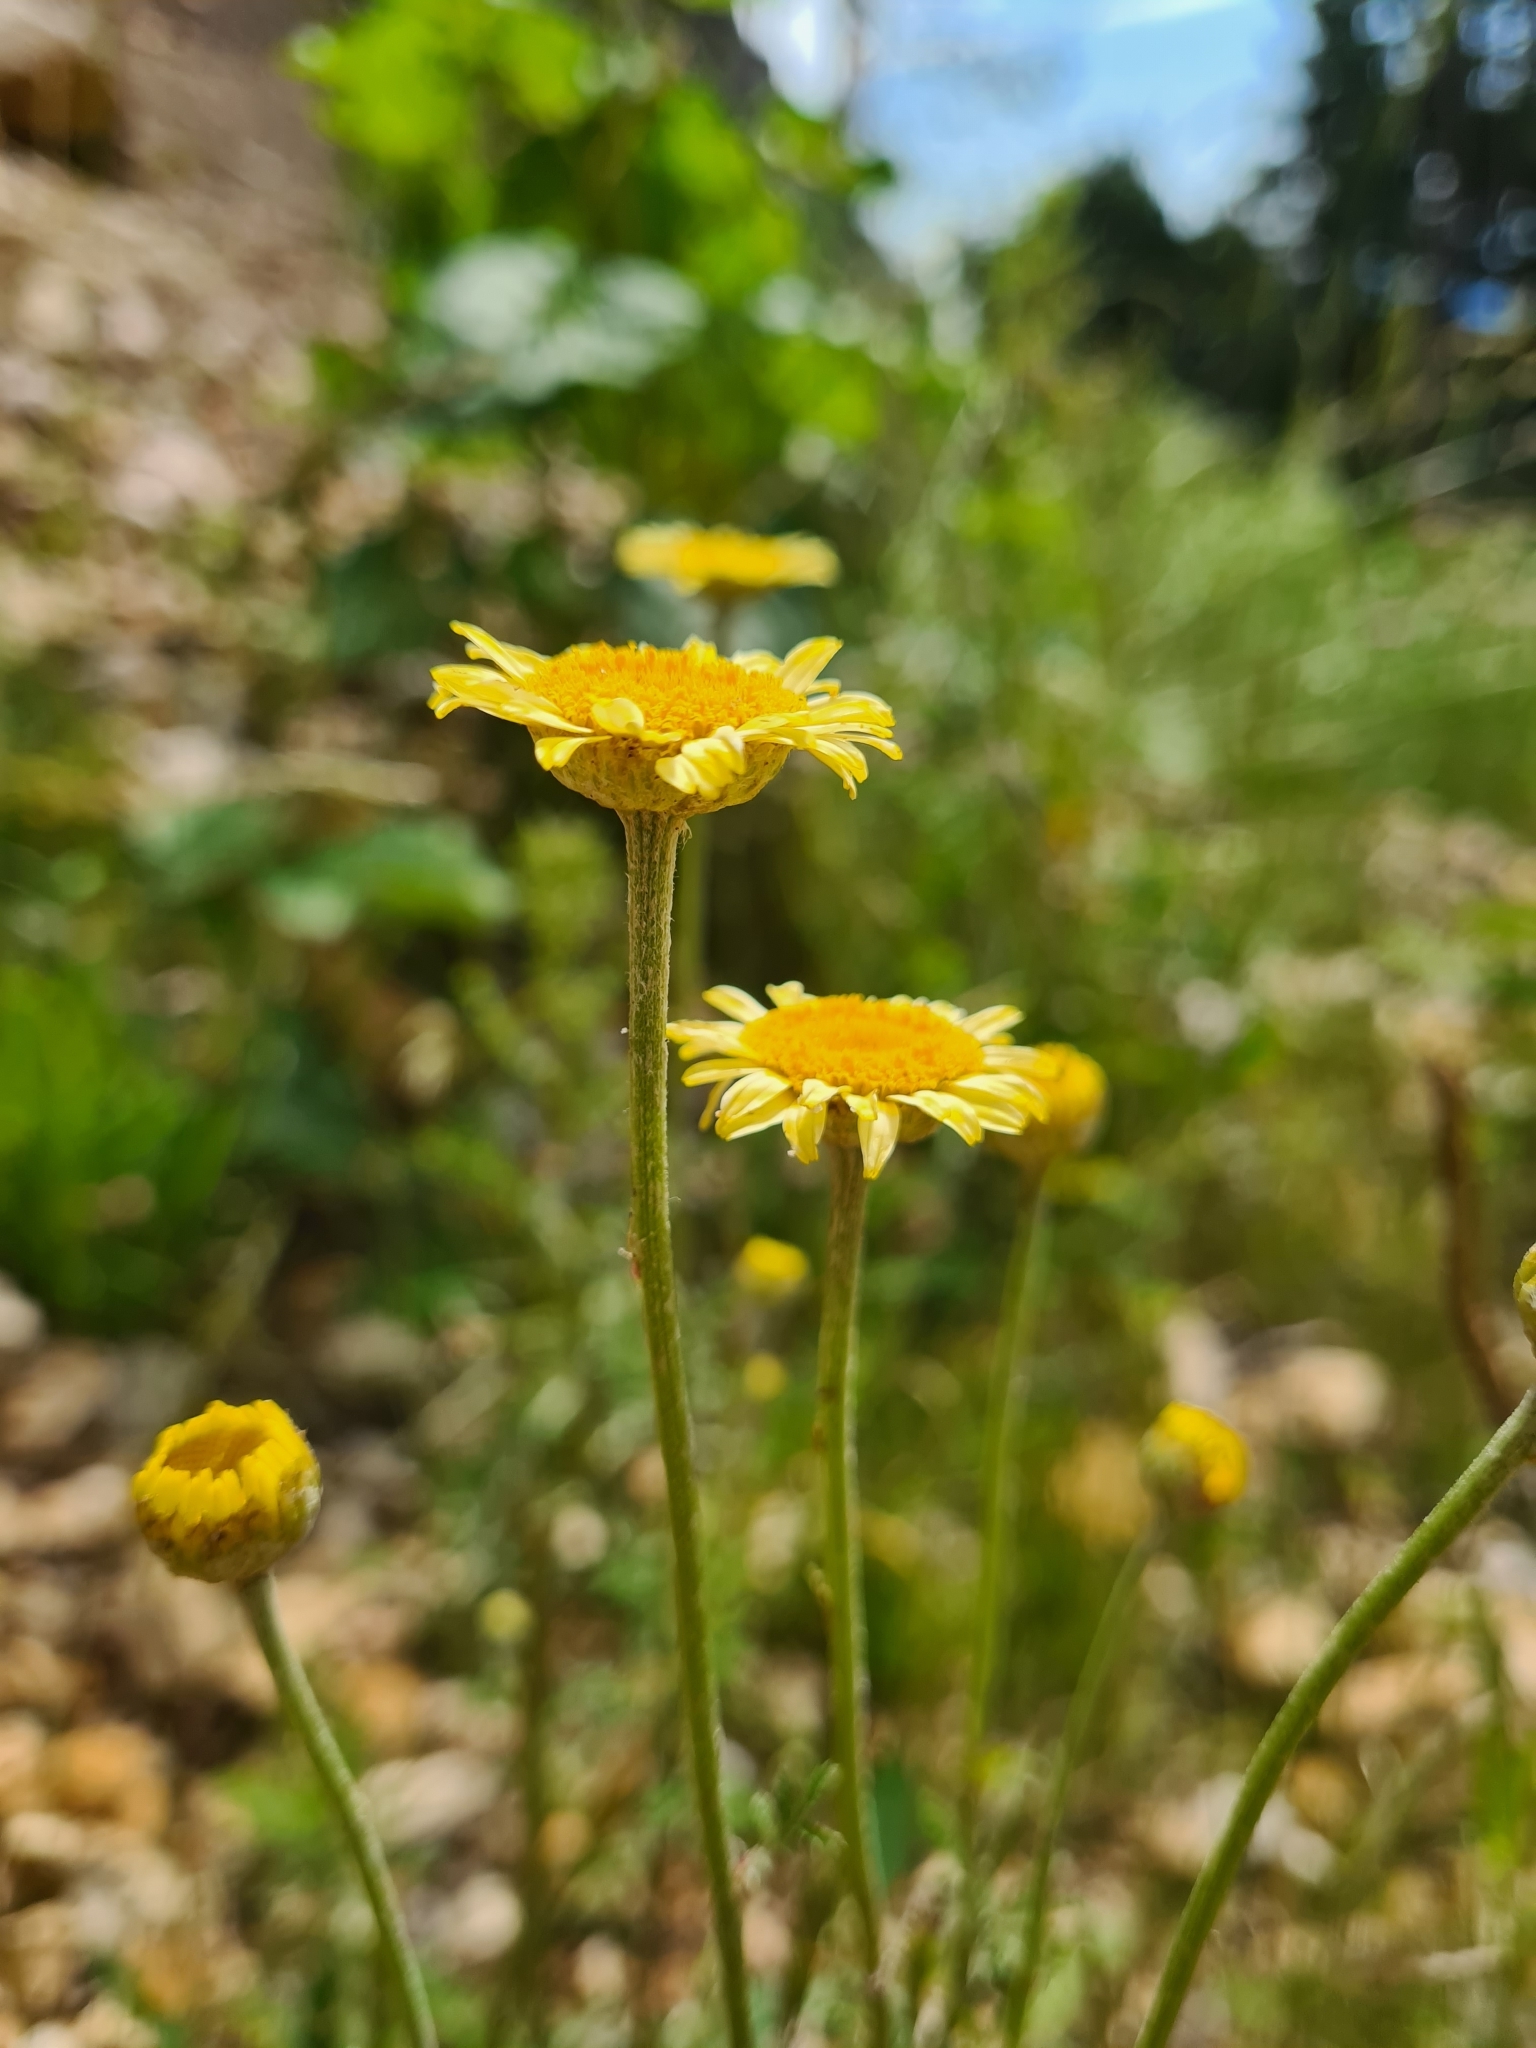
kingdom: Plantae
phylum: Tracheophyta
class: Magnoliopsida
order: Asterales
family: Asteraceae
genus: Cota
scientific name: Cota tinctoria
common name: Golden chamomile
